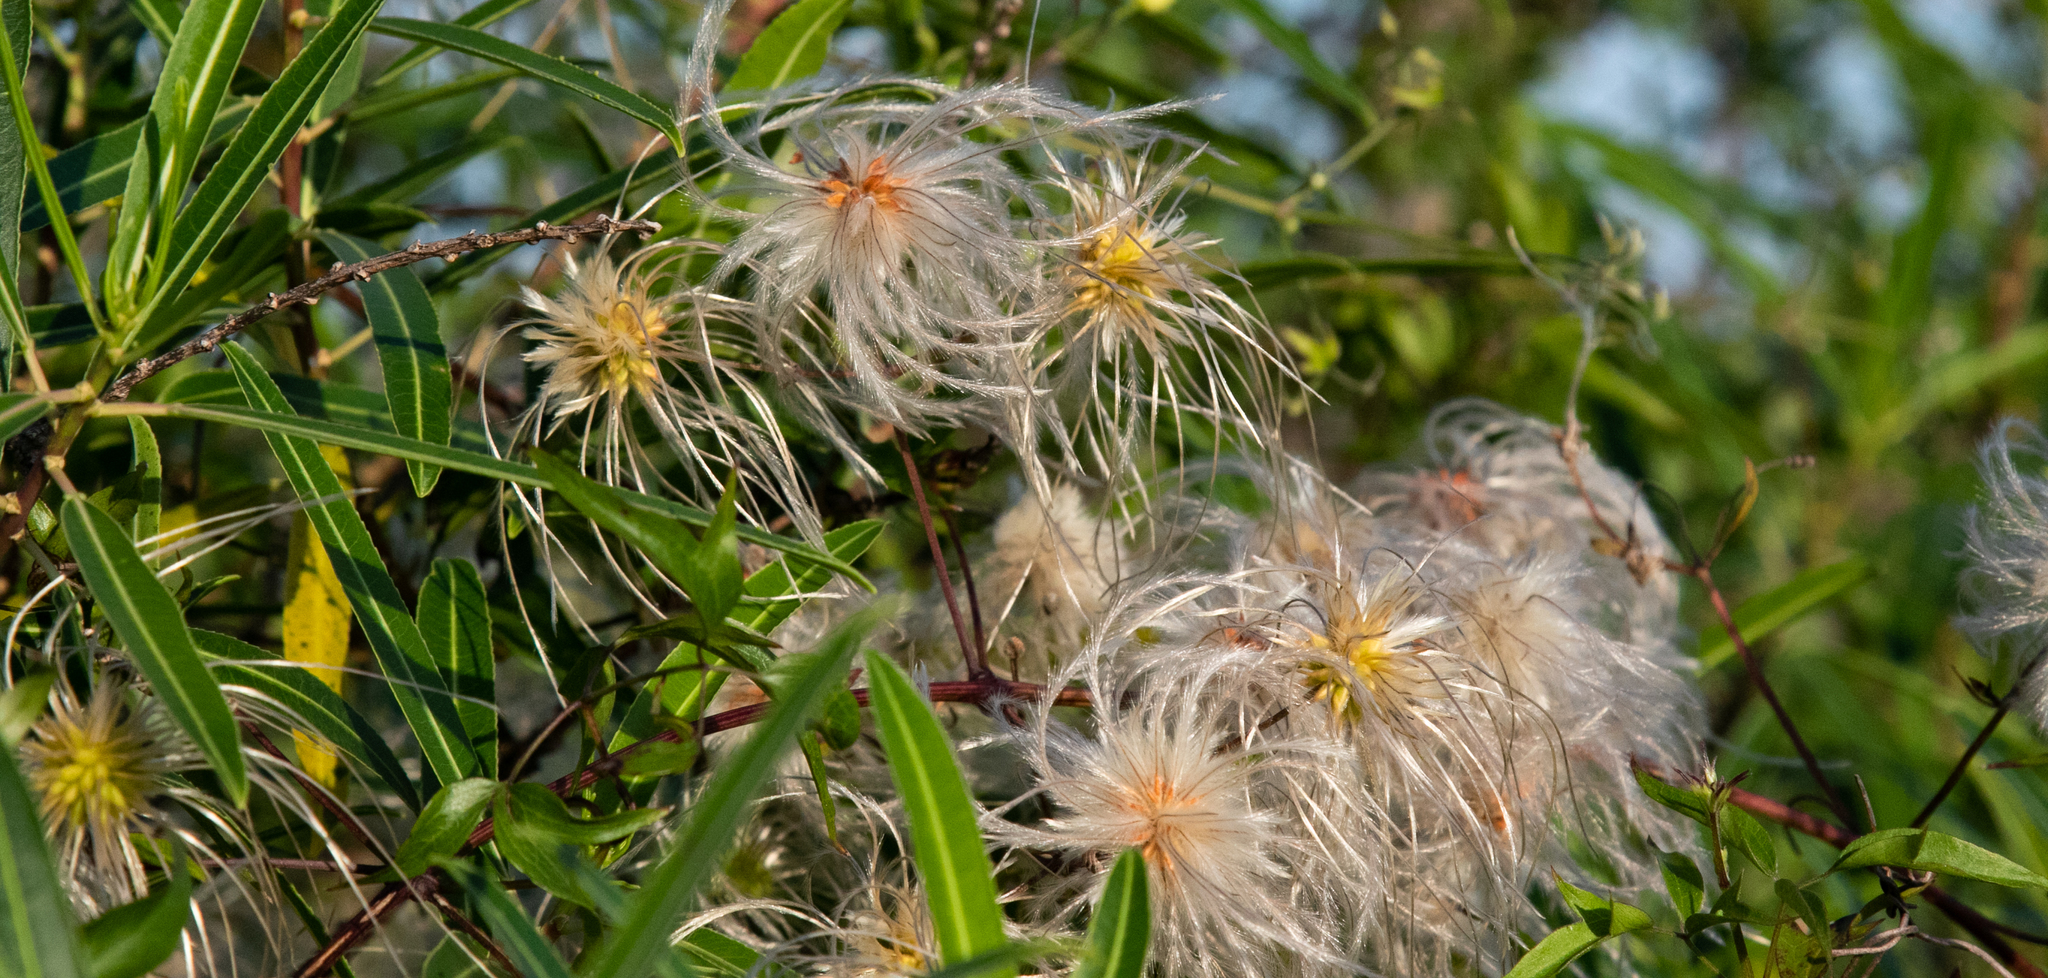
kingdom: Plantae
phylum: Tracheophyta
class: Magnoliopsida
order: Ranunculales
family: Ranunculaceae
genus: Clematis
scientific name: Clematis montevidensis
